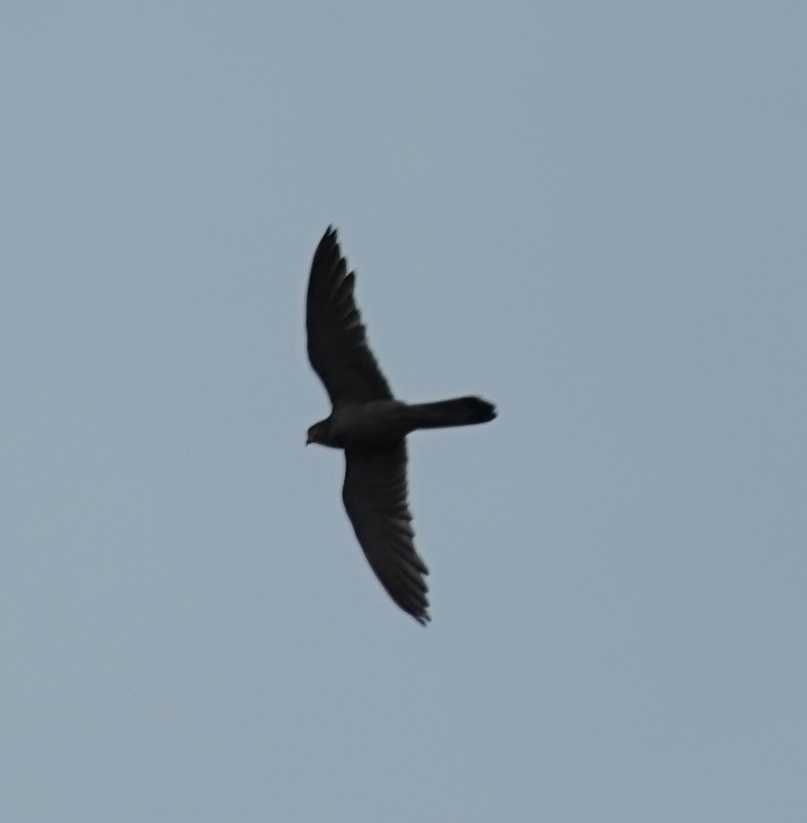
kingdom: Animalia
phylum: Chordata
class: Aves
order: Falconiformes
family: Falconidae
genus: Falco
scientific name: Falco cenchroides
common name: Nankeen kestrel
